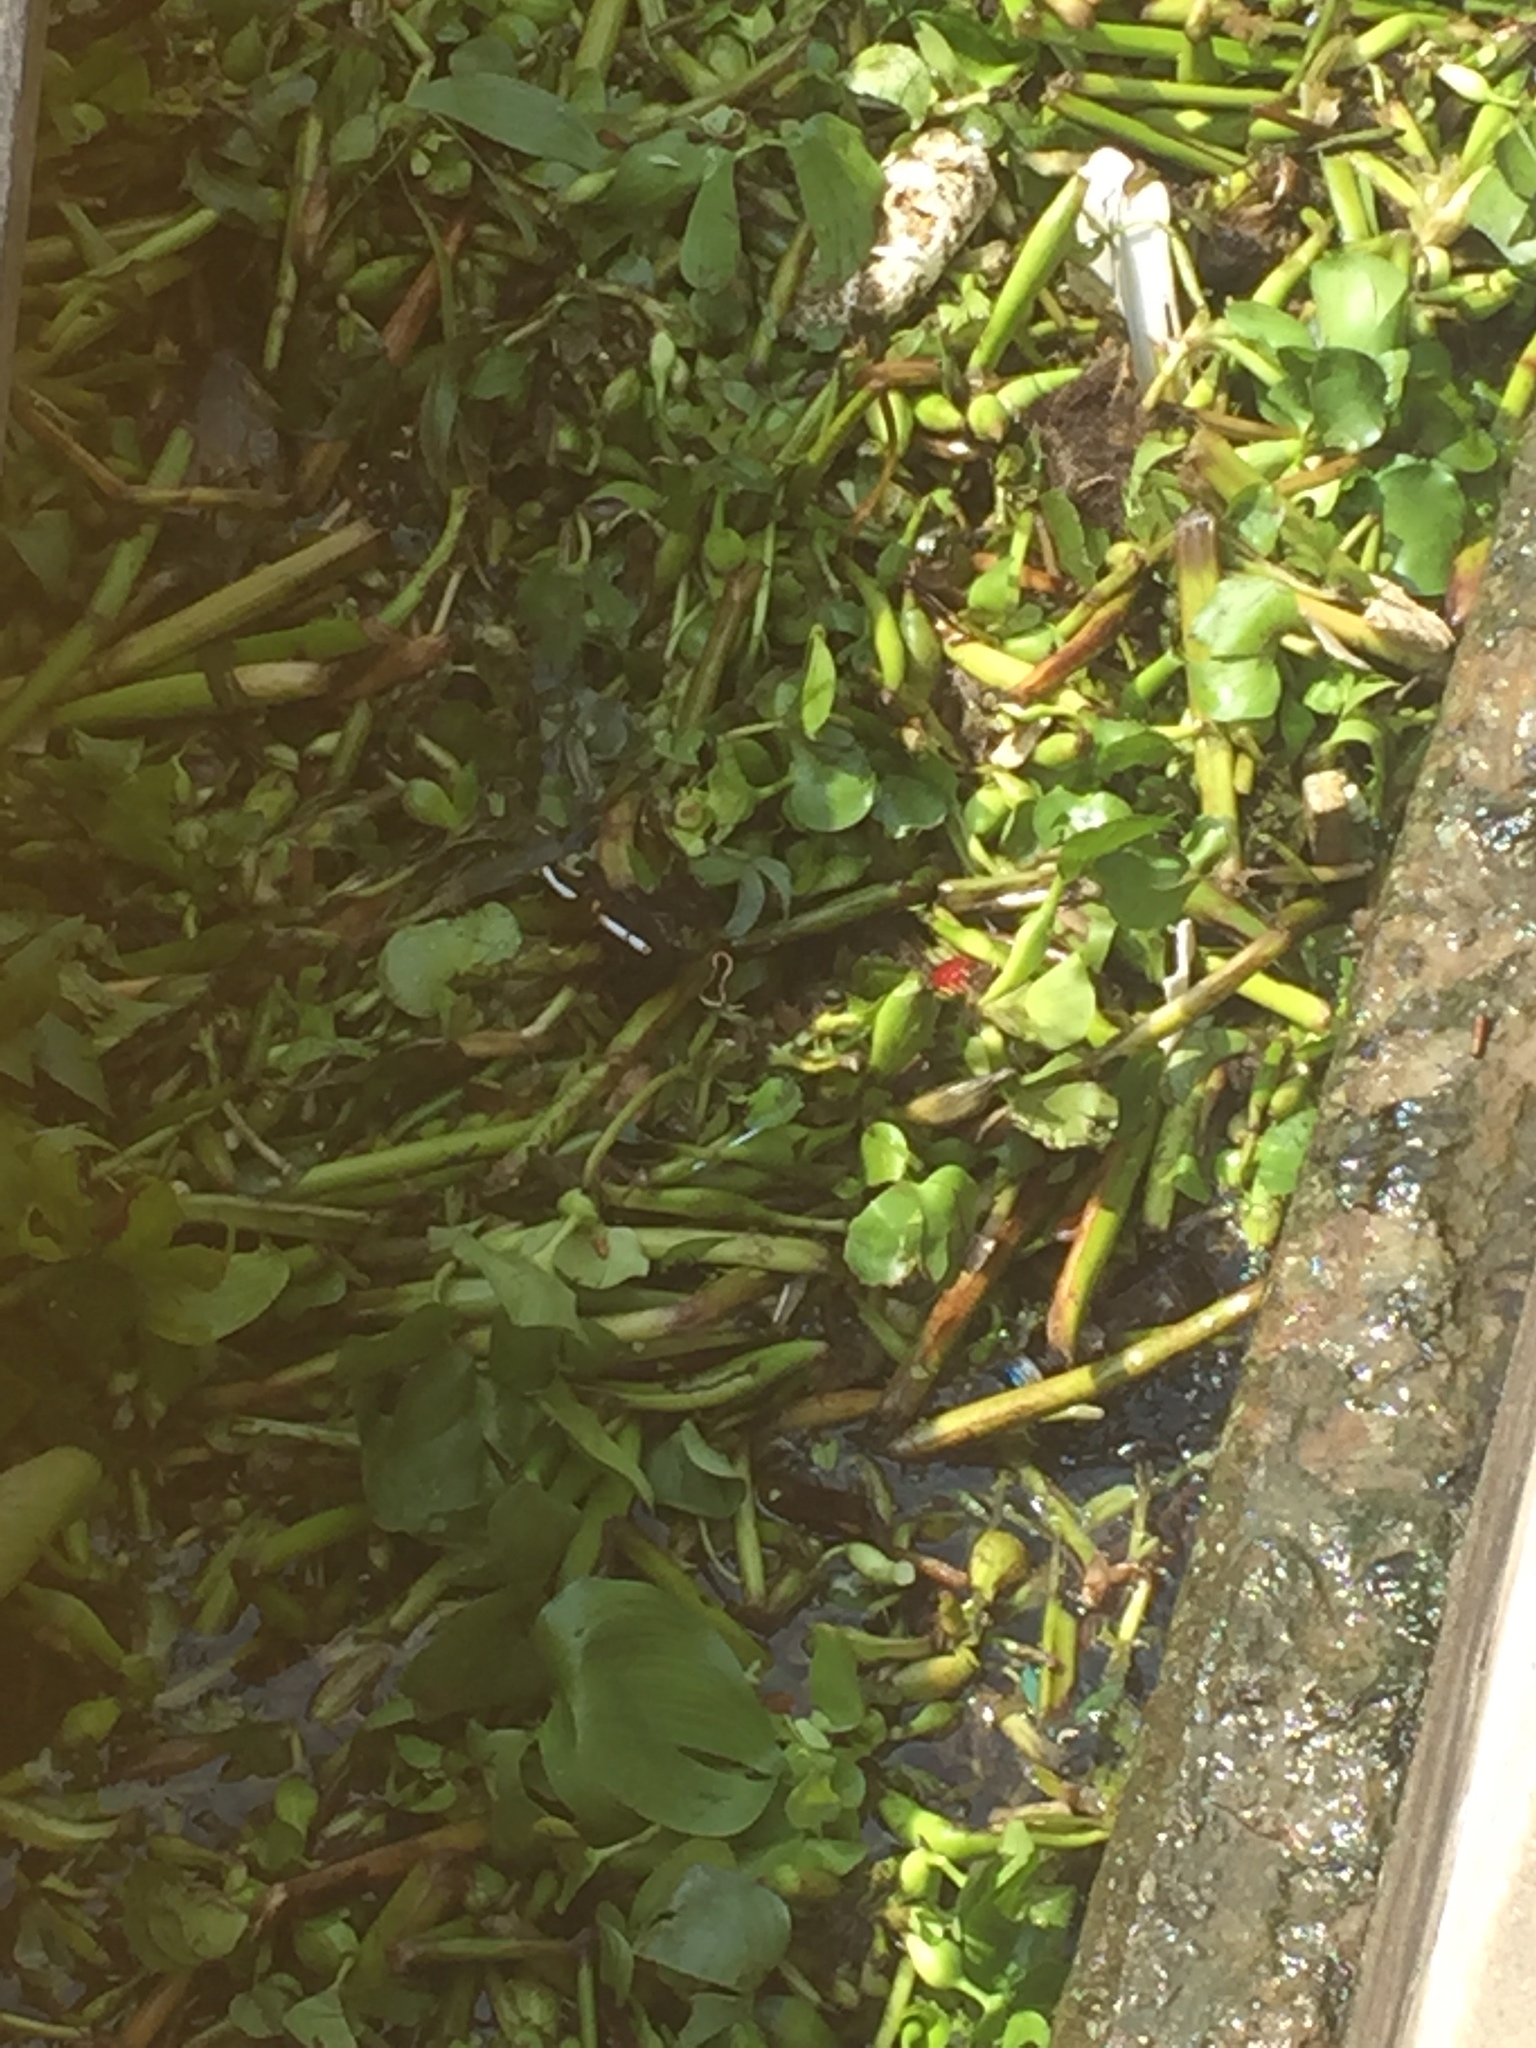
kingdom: Plantae
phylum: Tracheophyta
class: Liliopsida
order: Commelinales
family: Pontederiaceae
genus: Pontederia
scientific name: Pontederia crassipes
